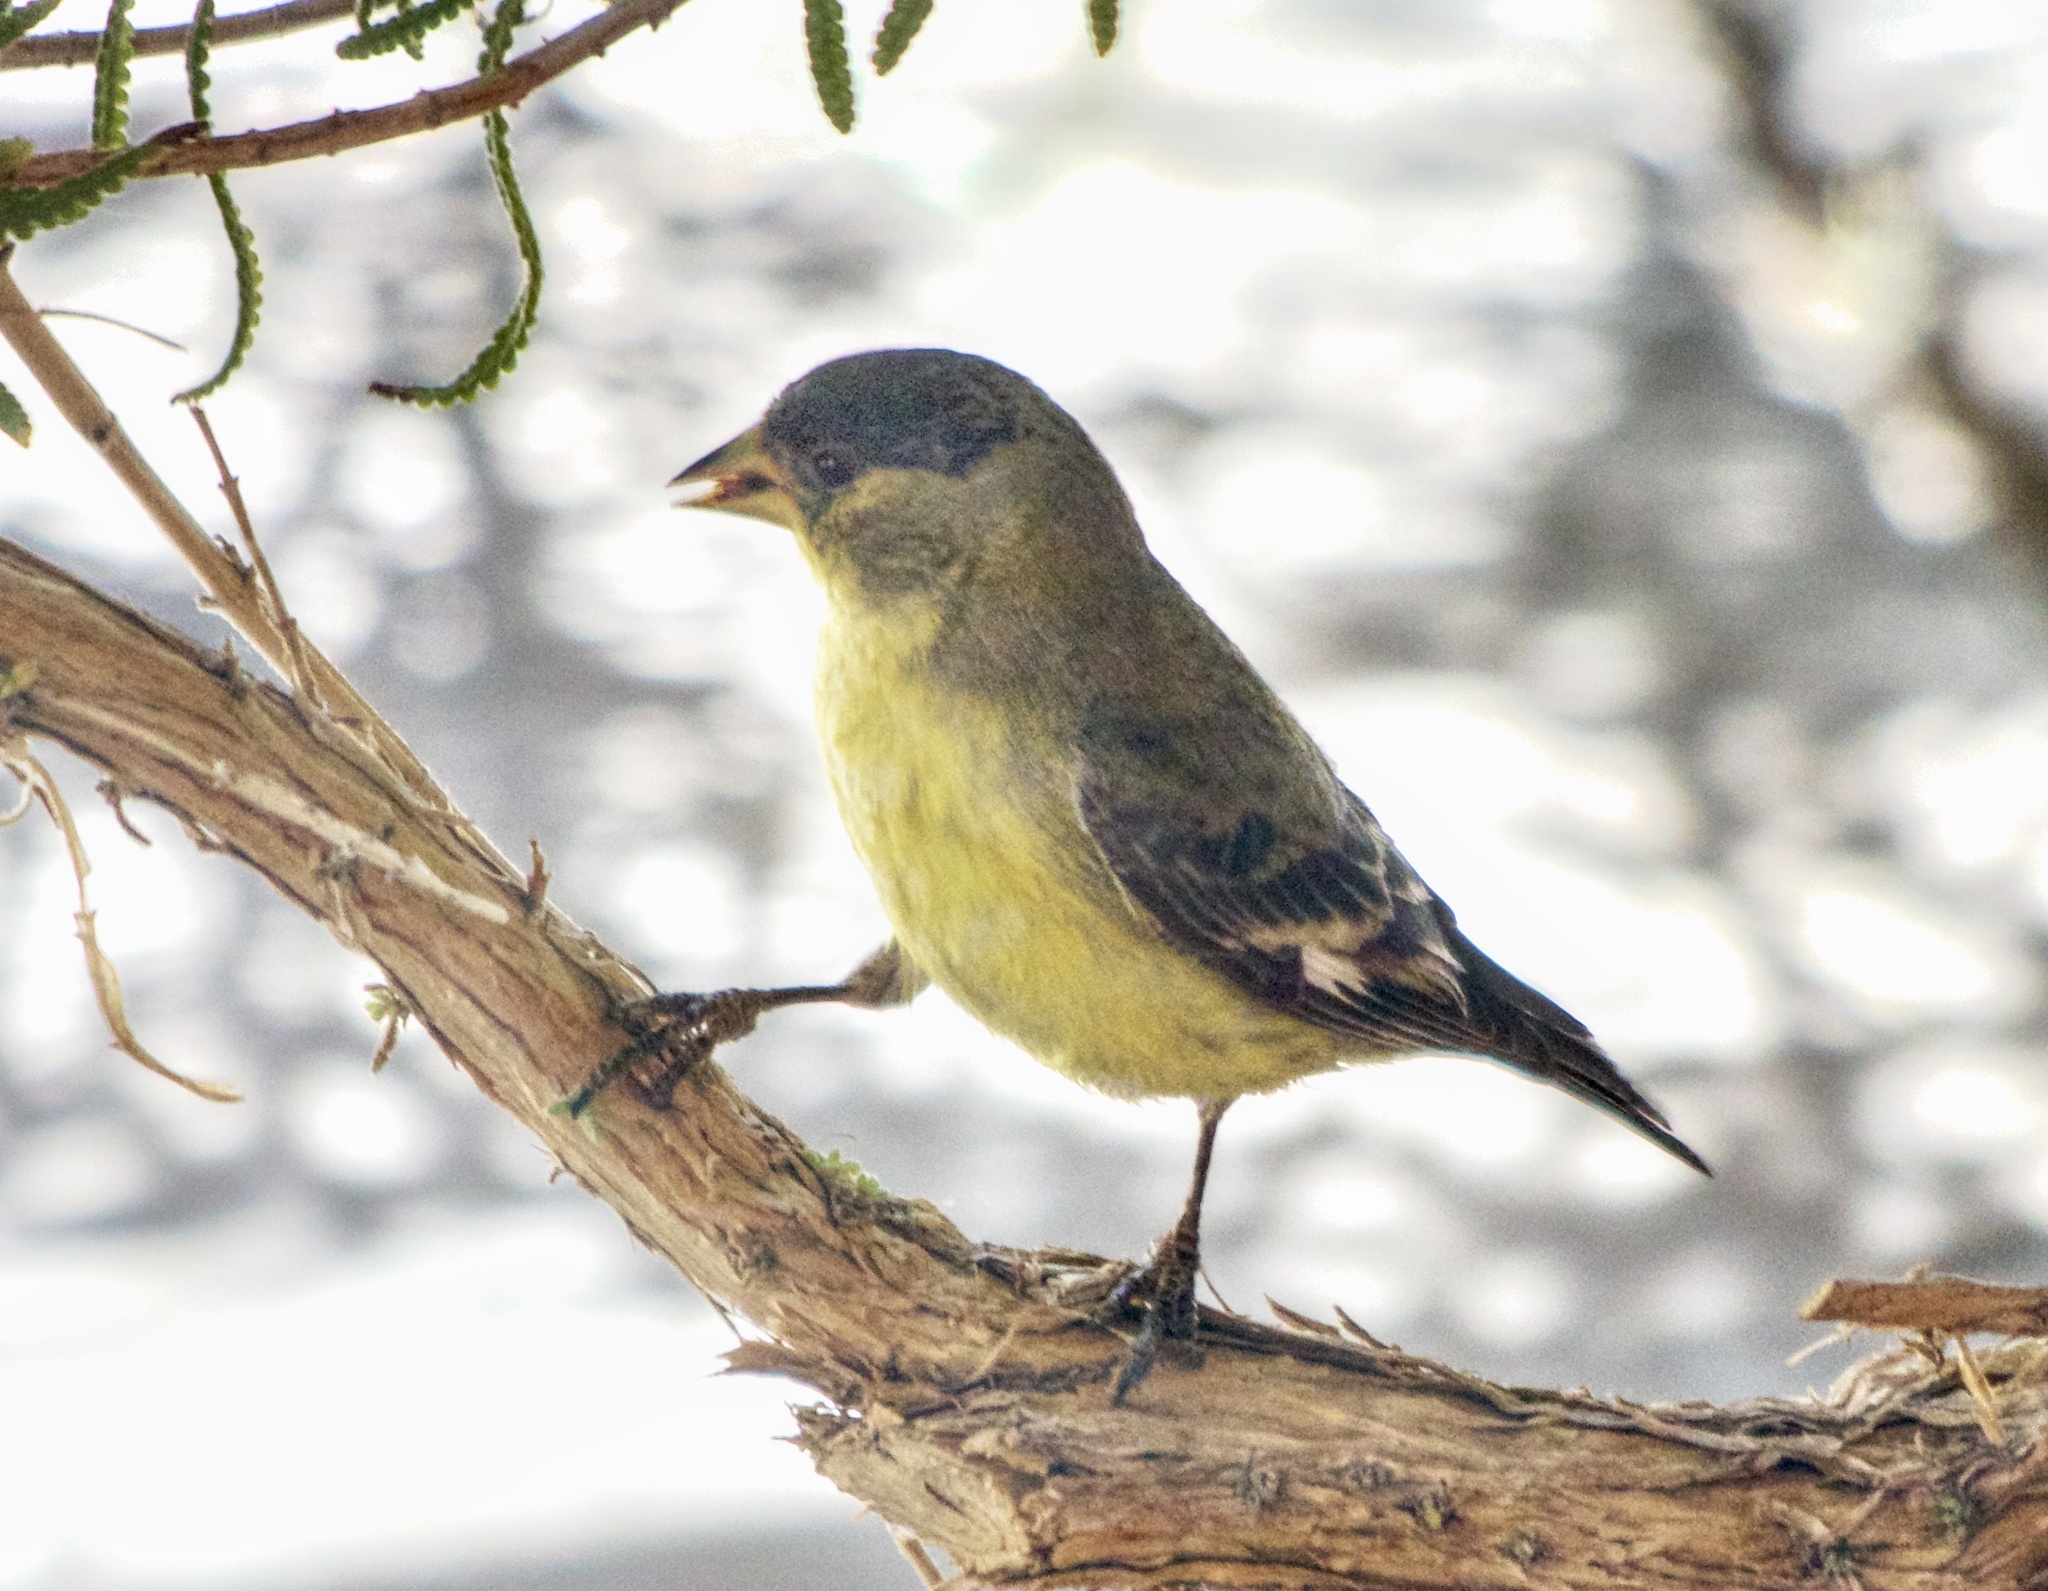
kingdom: Animalia
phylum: Chordata
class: Aves
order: Passeriformes
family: Fringillidae
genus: Spinus
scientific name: Spinus psaltria
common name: Lesser goldfinch
